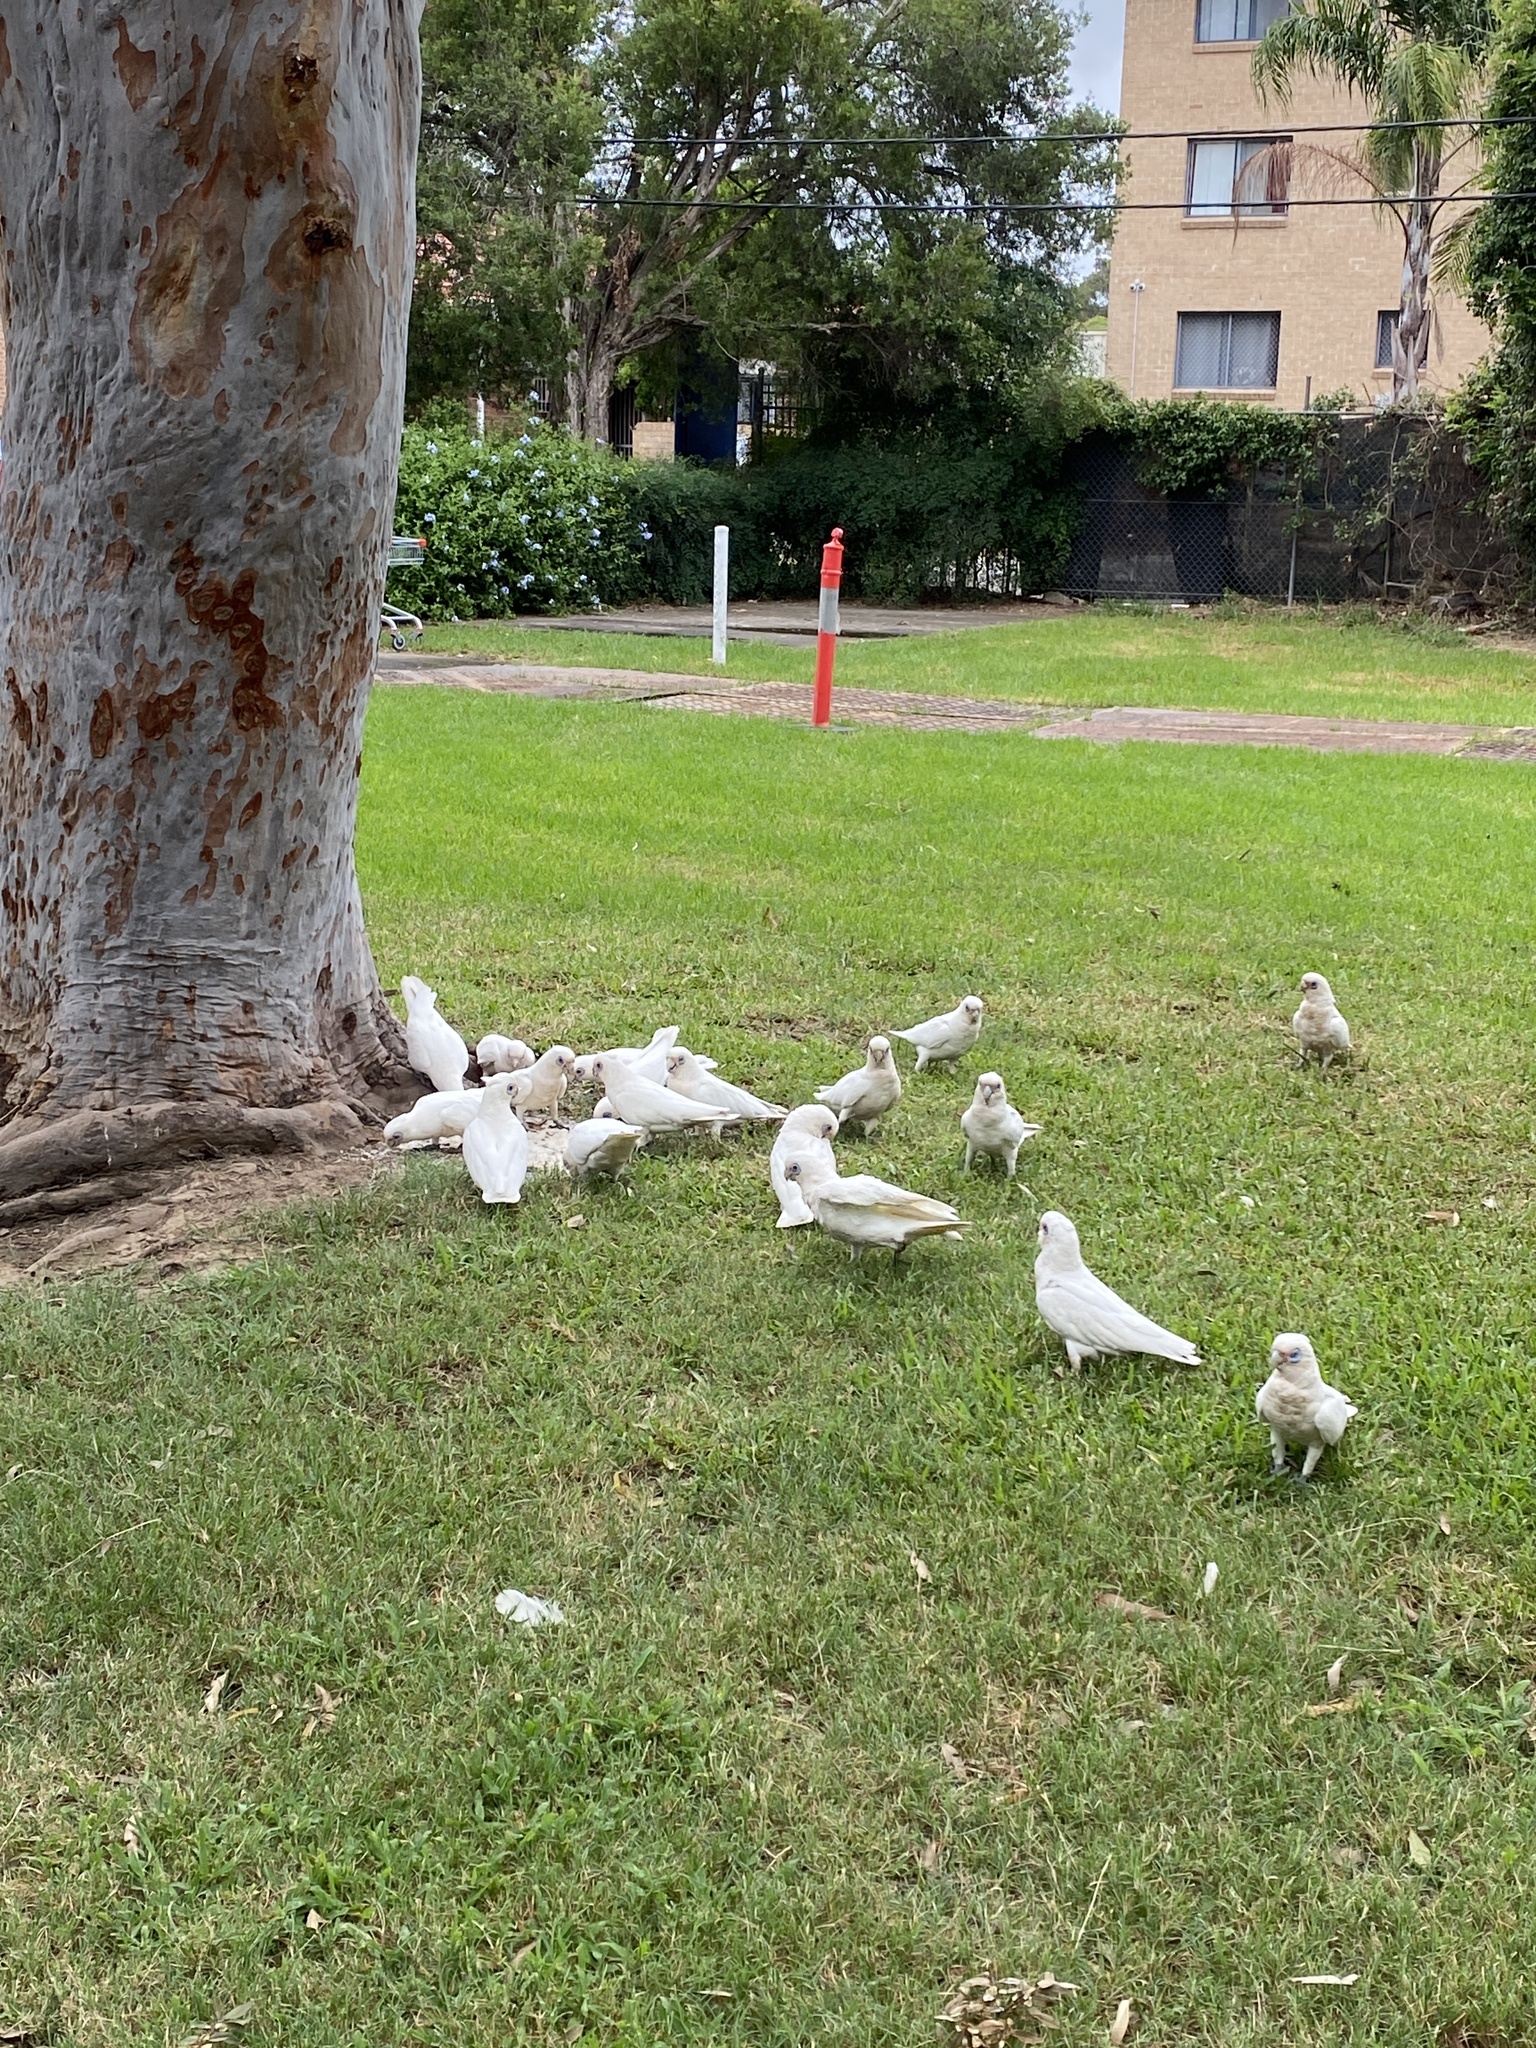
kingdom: Animalia
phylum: Chordata
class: Aves
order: Psittaciformes
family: Psittacidae
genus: Cacatua
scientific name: Cacatua sanguinea
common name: Little corella
